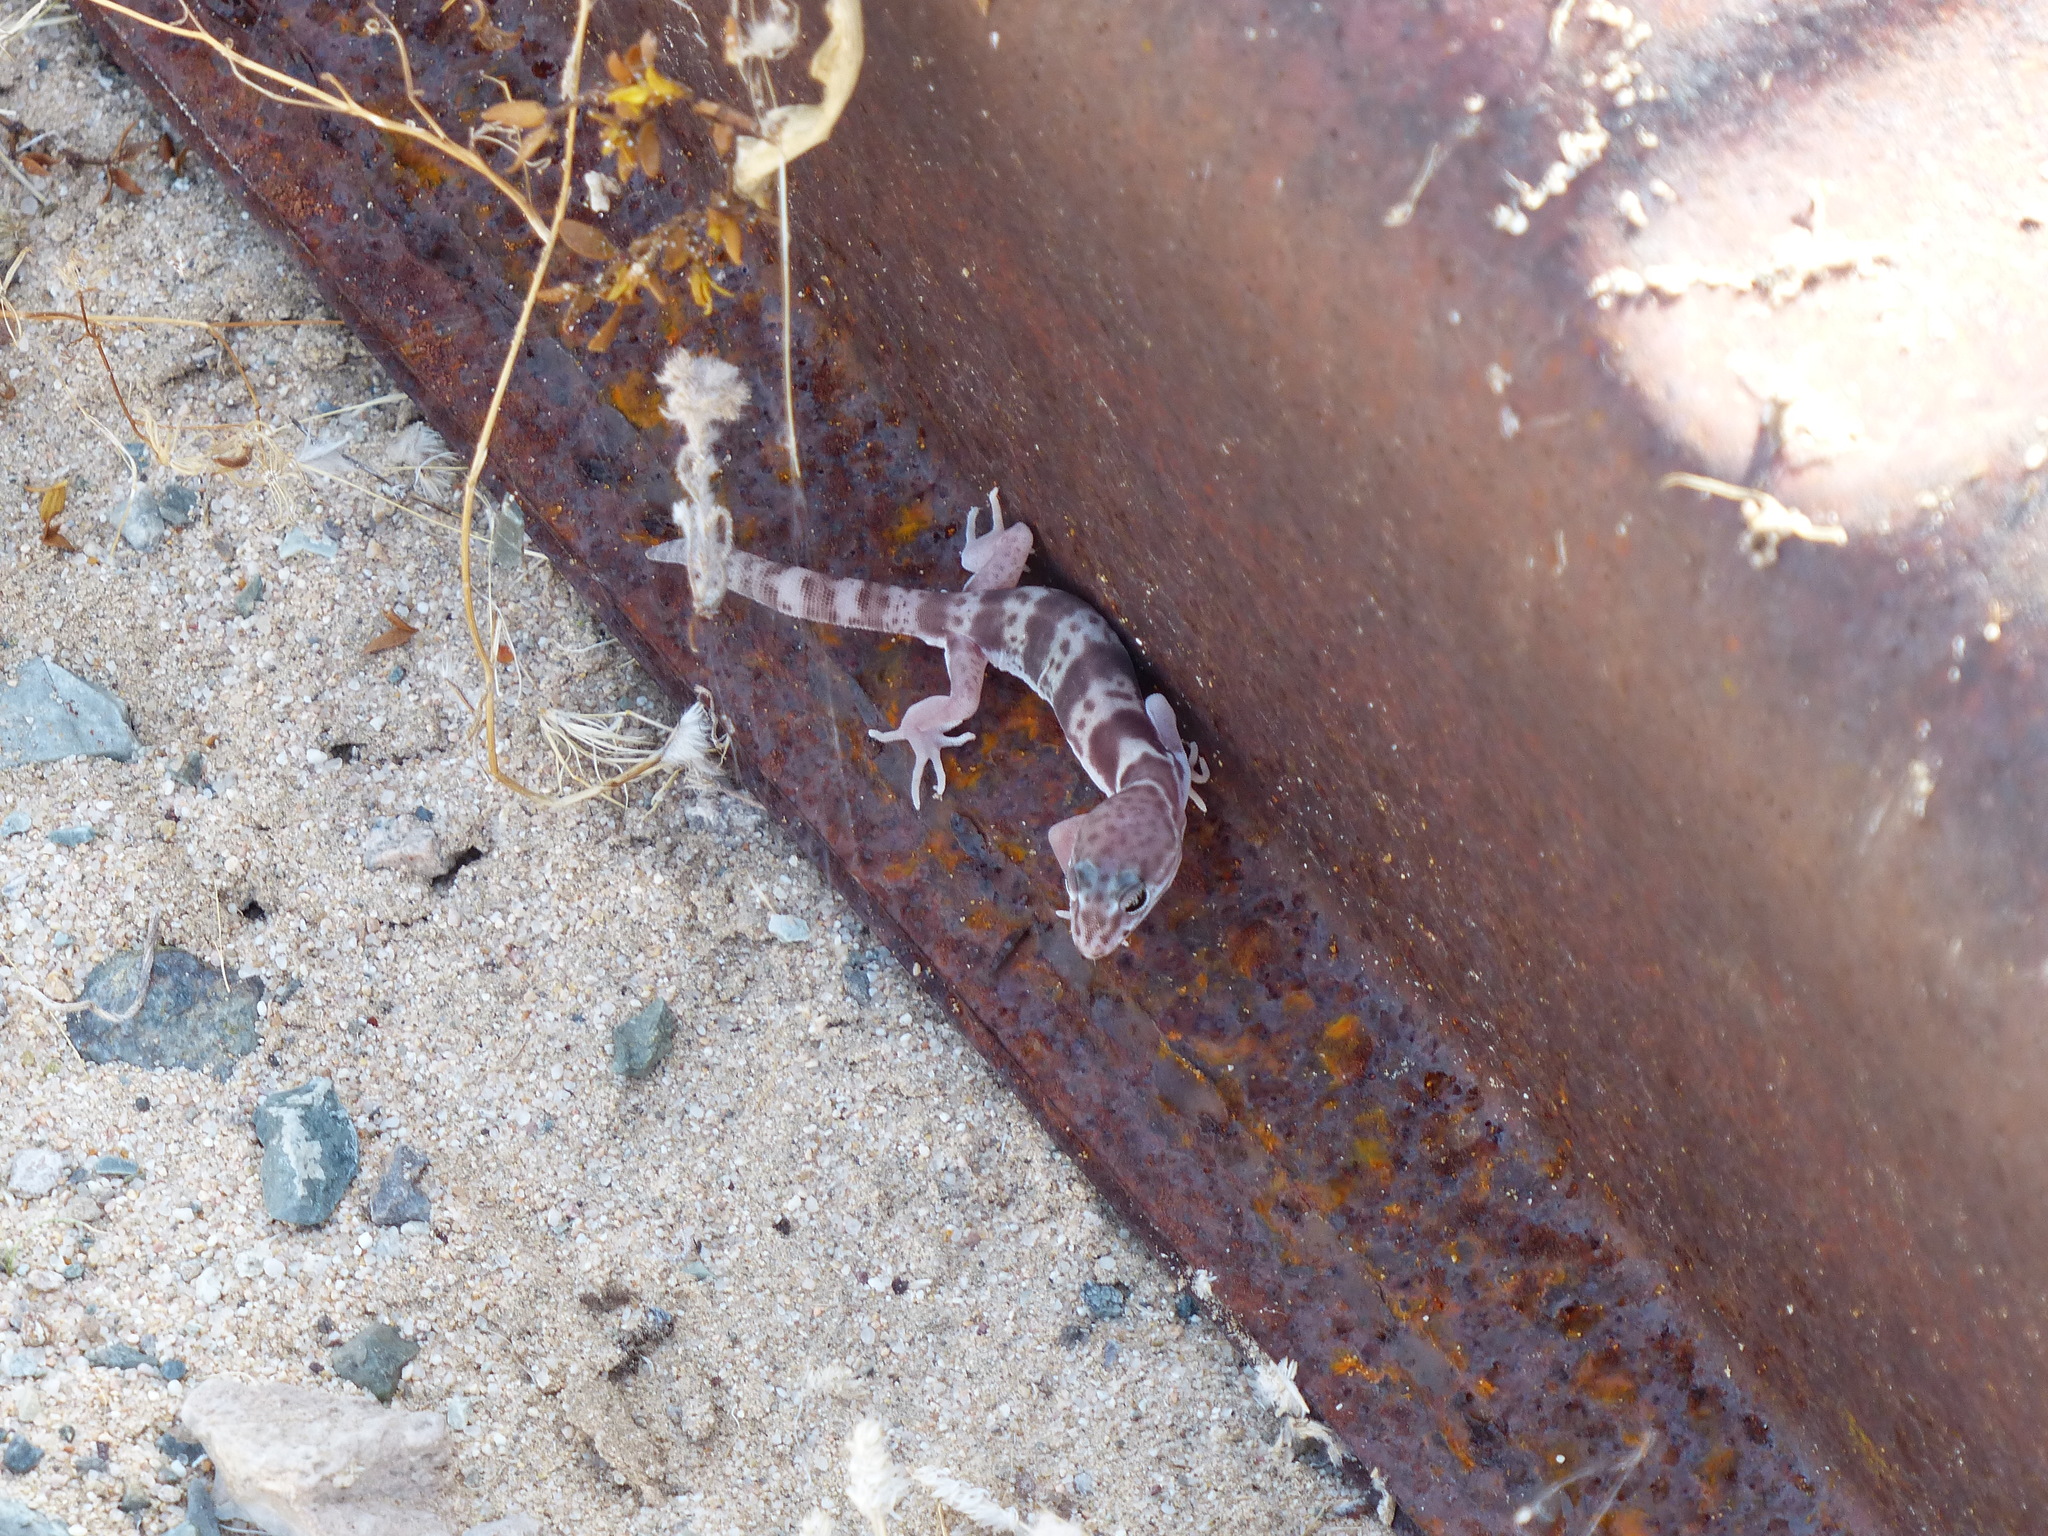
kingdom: Animalia
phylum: Chordata
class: Squamata
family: Eublepharidae
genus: Coleonyx
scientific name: Coleonyx variegatus
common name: Western banded gecko
